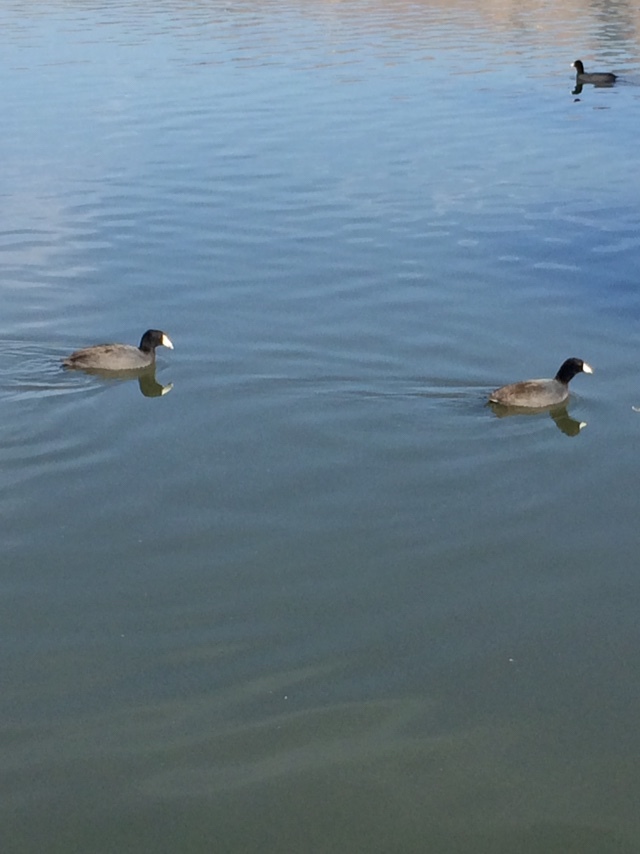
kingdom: Animalia
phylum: Chordata
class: Aves
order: Gruiformes
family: Rallidae
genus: Fulica
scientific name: Fulica americana
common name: American coot
